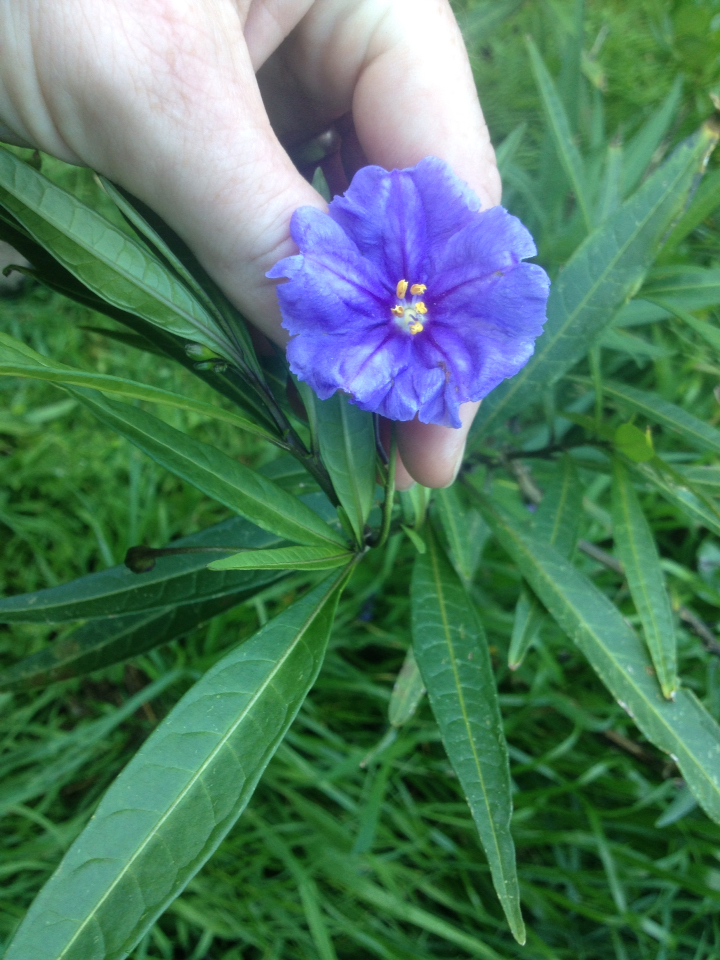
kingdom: Plantae
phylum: Tracheophyta
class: Magnoliopsida
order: Solanales
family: Solanaceae
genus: Solanum
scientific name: Solanum laciniatum
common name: Kangaroo-apple
